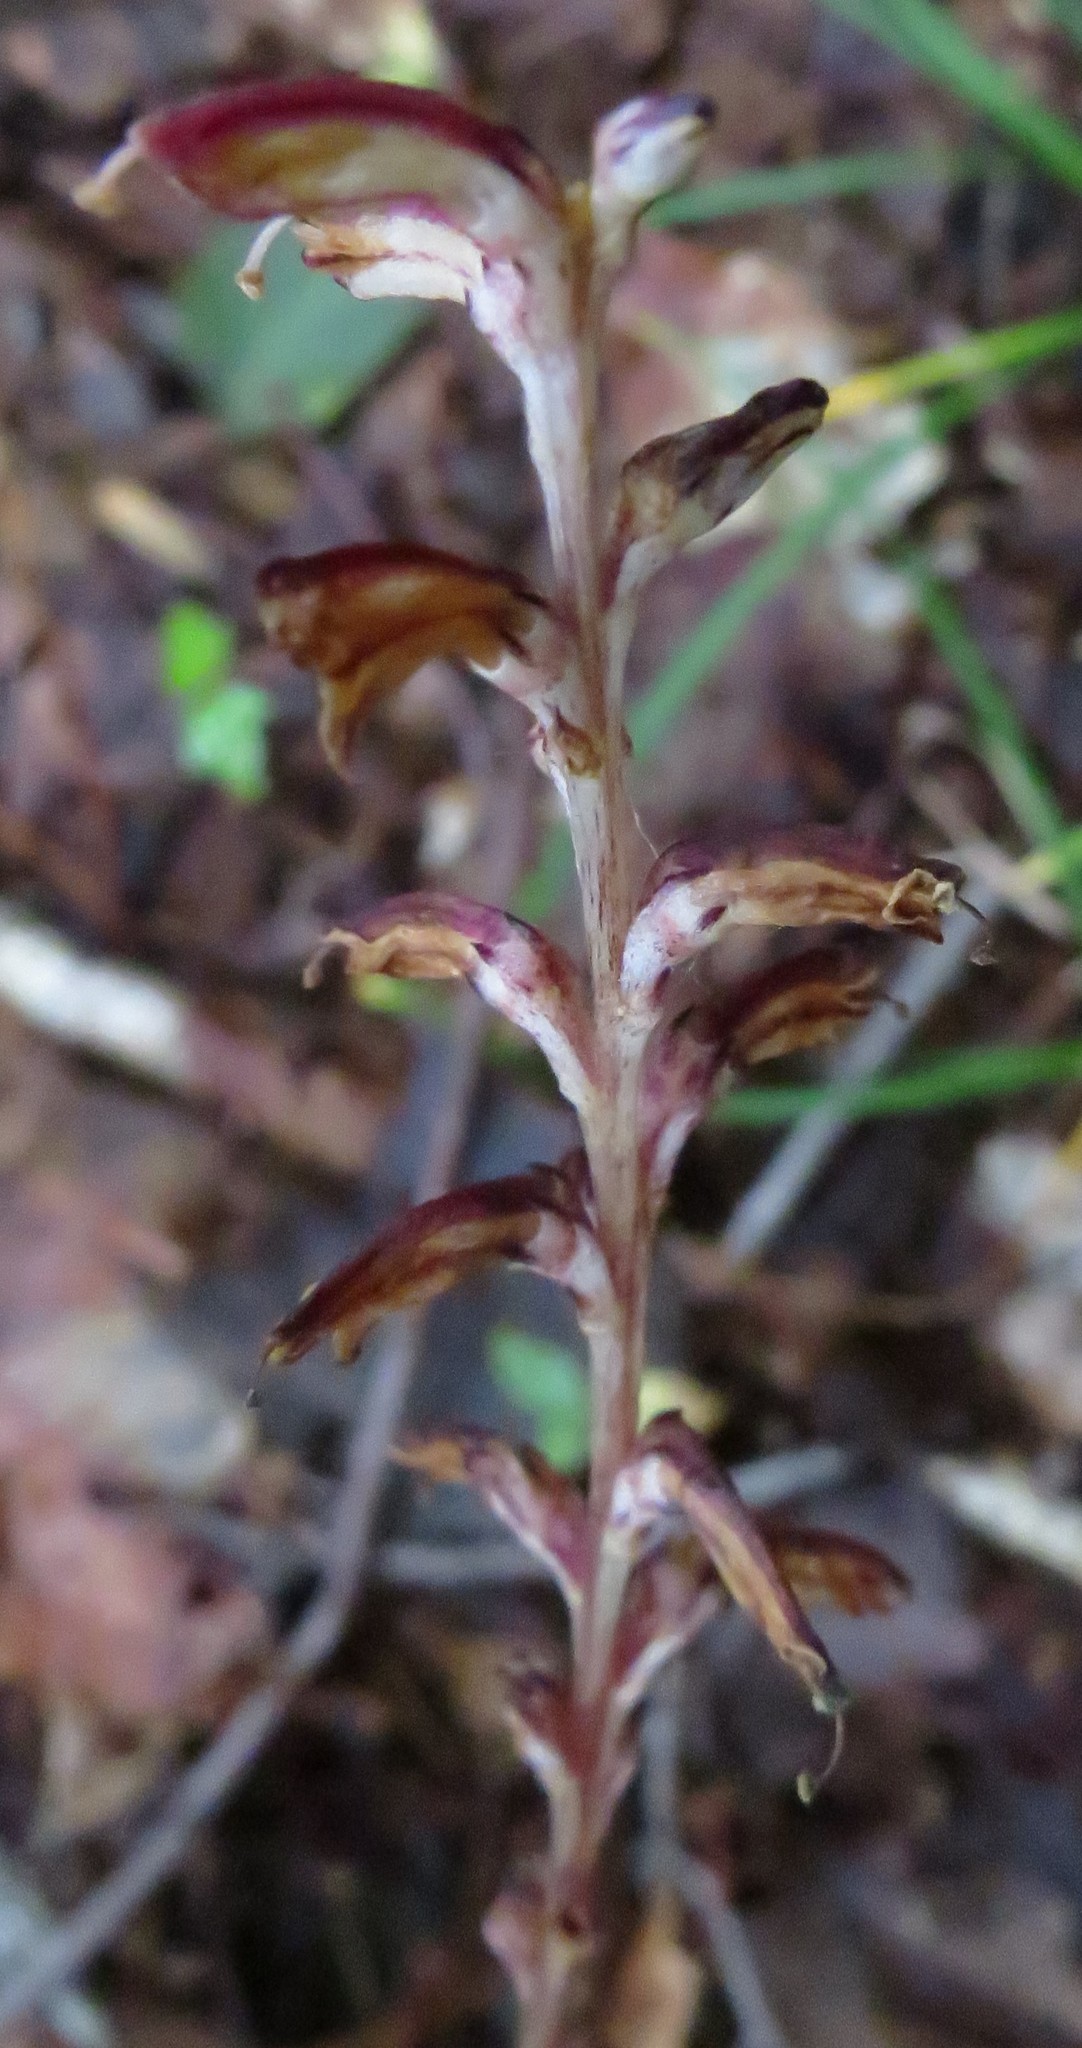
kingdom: Plantae
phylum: Tracheophyta
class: Magnoliopsida
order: Lamiales
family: Orobanchaceae
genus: Epifagus
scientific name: Epifagus virginiana
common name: Beechdrops
